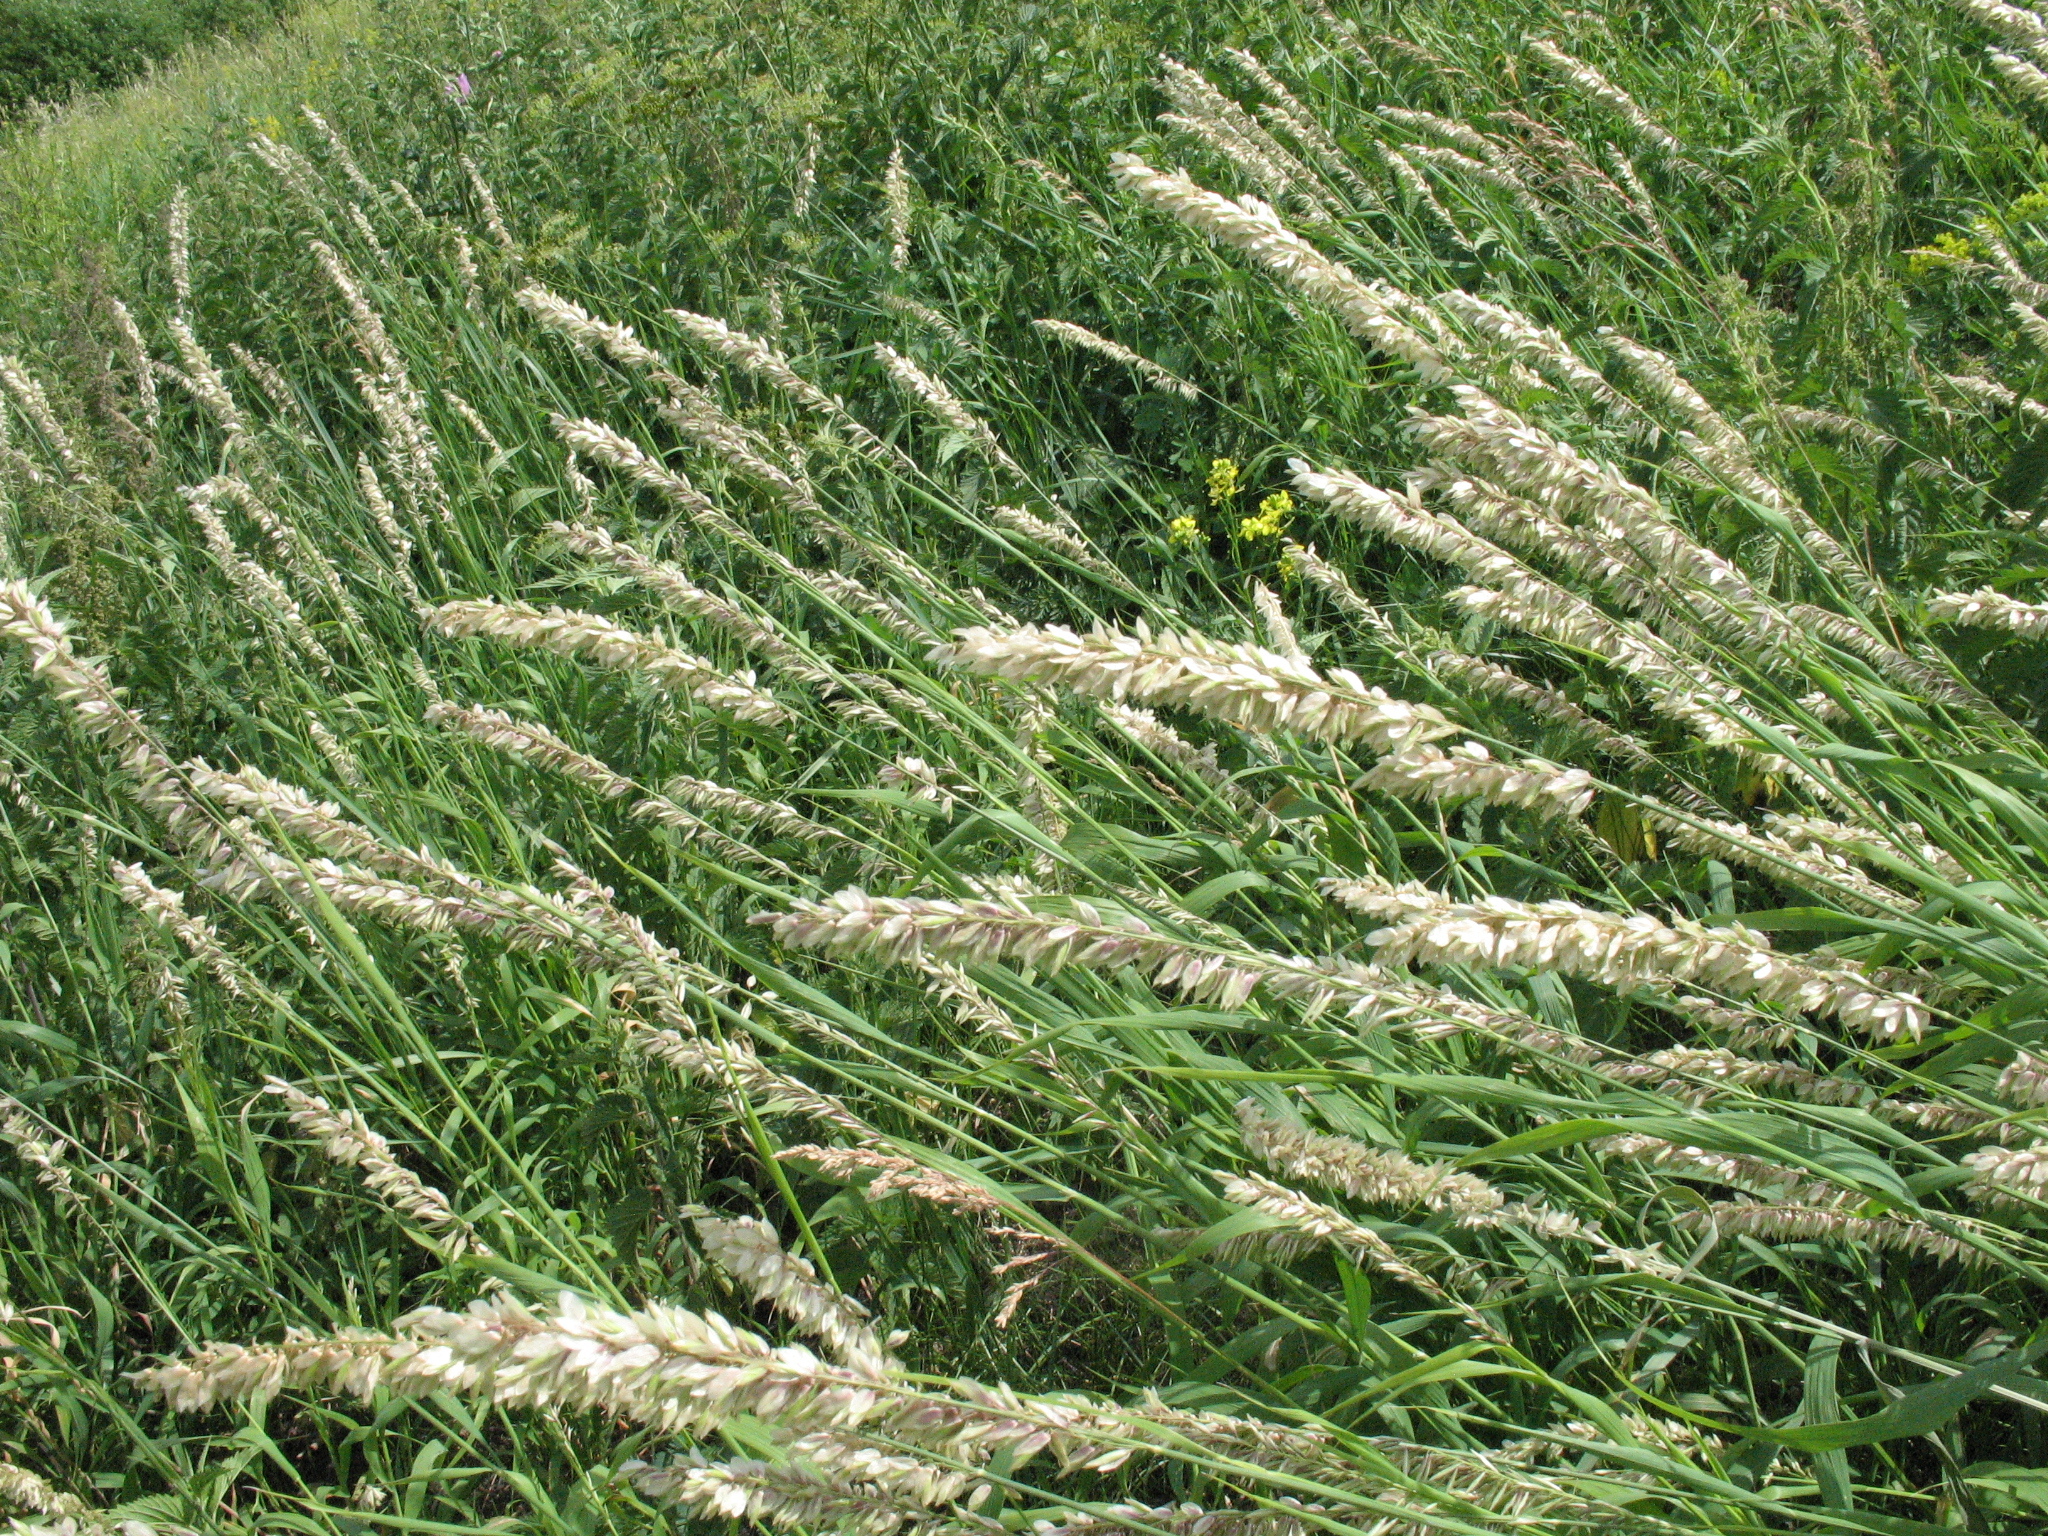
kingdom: Plantae
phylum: Tracheophyta
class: Liliopsida
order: Poales
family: Poaceae
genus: Melica
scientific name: Melica altissima
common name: Siberian melicgrass
